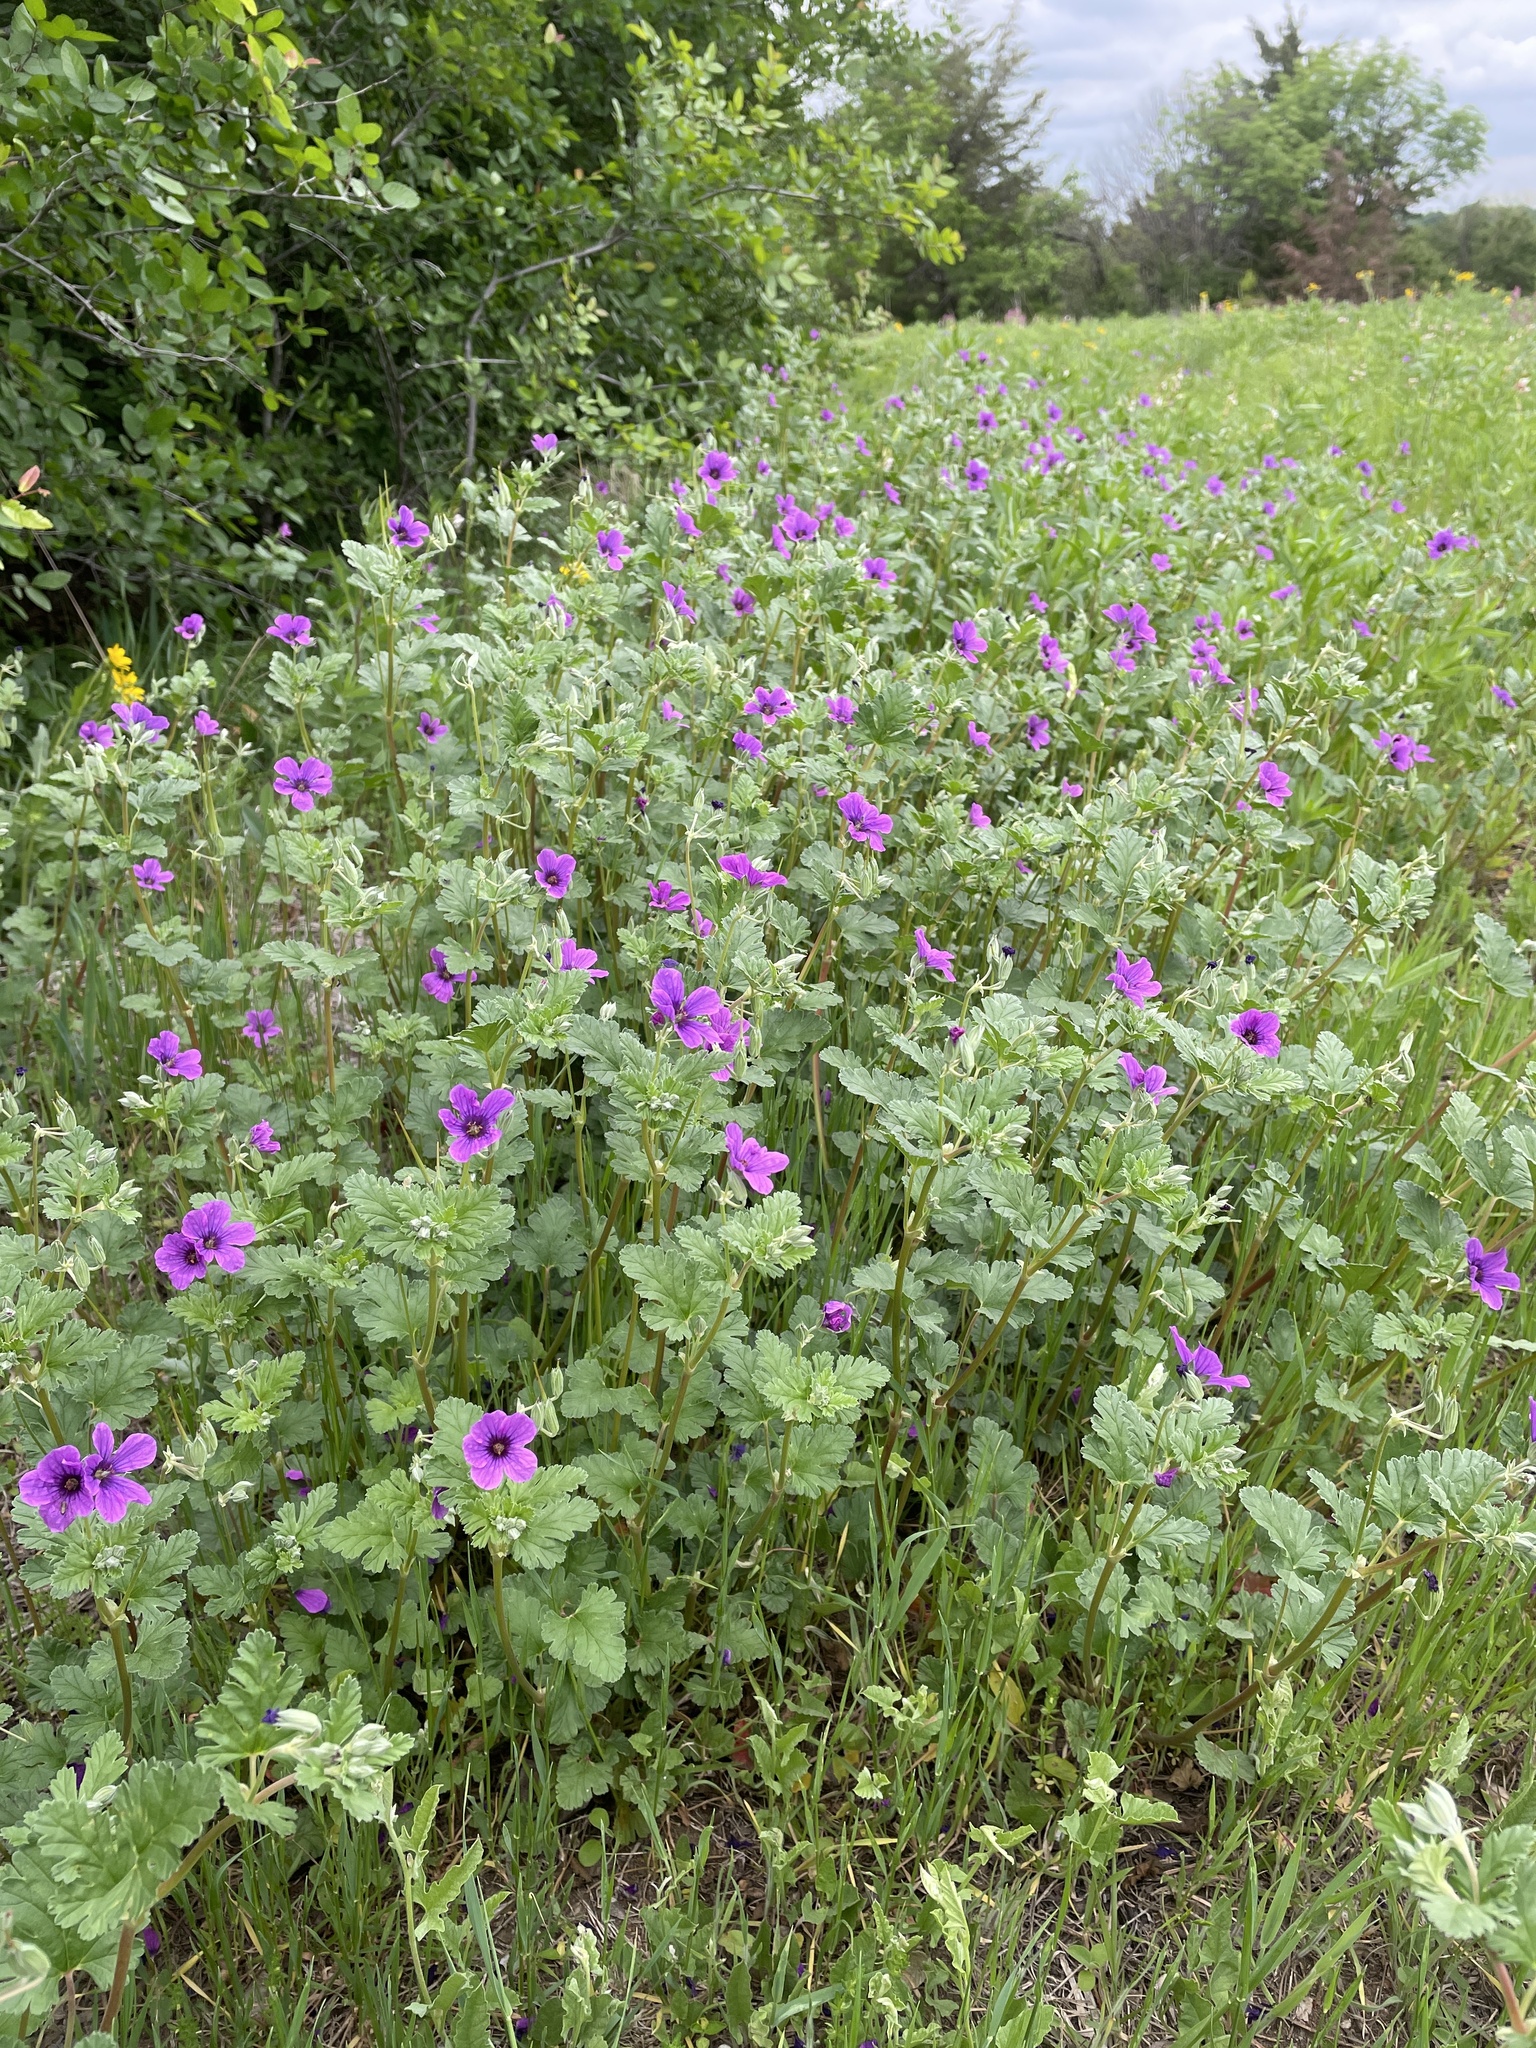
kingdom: Plantae
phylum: Tracheophyta
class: Magnoliopsida
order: Geraniales
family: Geraniaceae
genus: Erodium
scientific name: Erodium texanum
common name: Texas stork's-bill
